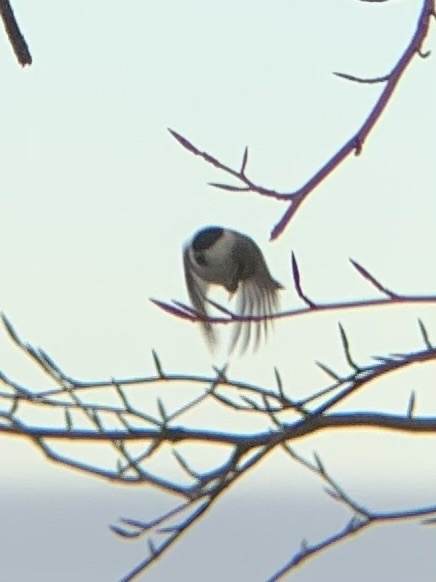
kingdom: Animalia
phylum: Chordata
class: Aves
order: Passeriformes
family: Paridae
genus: Poecile
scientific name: Poecile palustris
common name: Marsh tit
